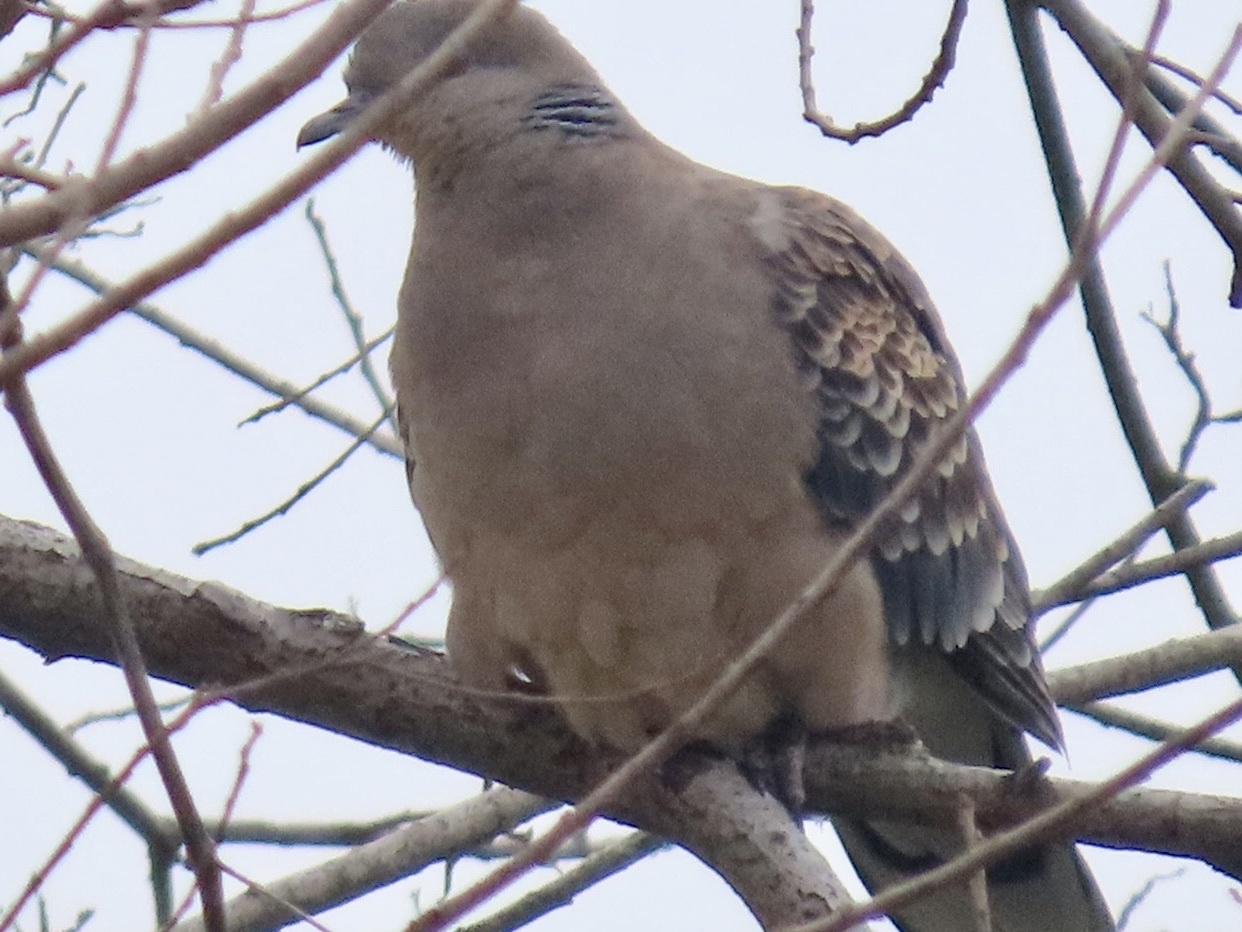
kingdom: Animalia
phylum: Chordata
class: Aves
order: Columbiformes
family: Columbidae
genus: Streptopelia
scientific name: Streptopelia orientalis
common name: Oriental turtle dove
